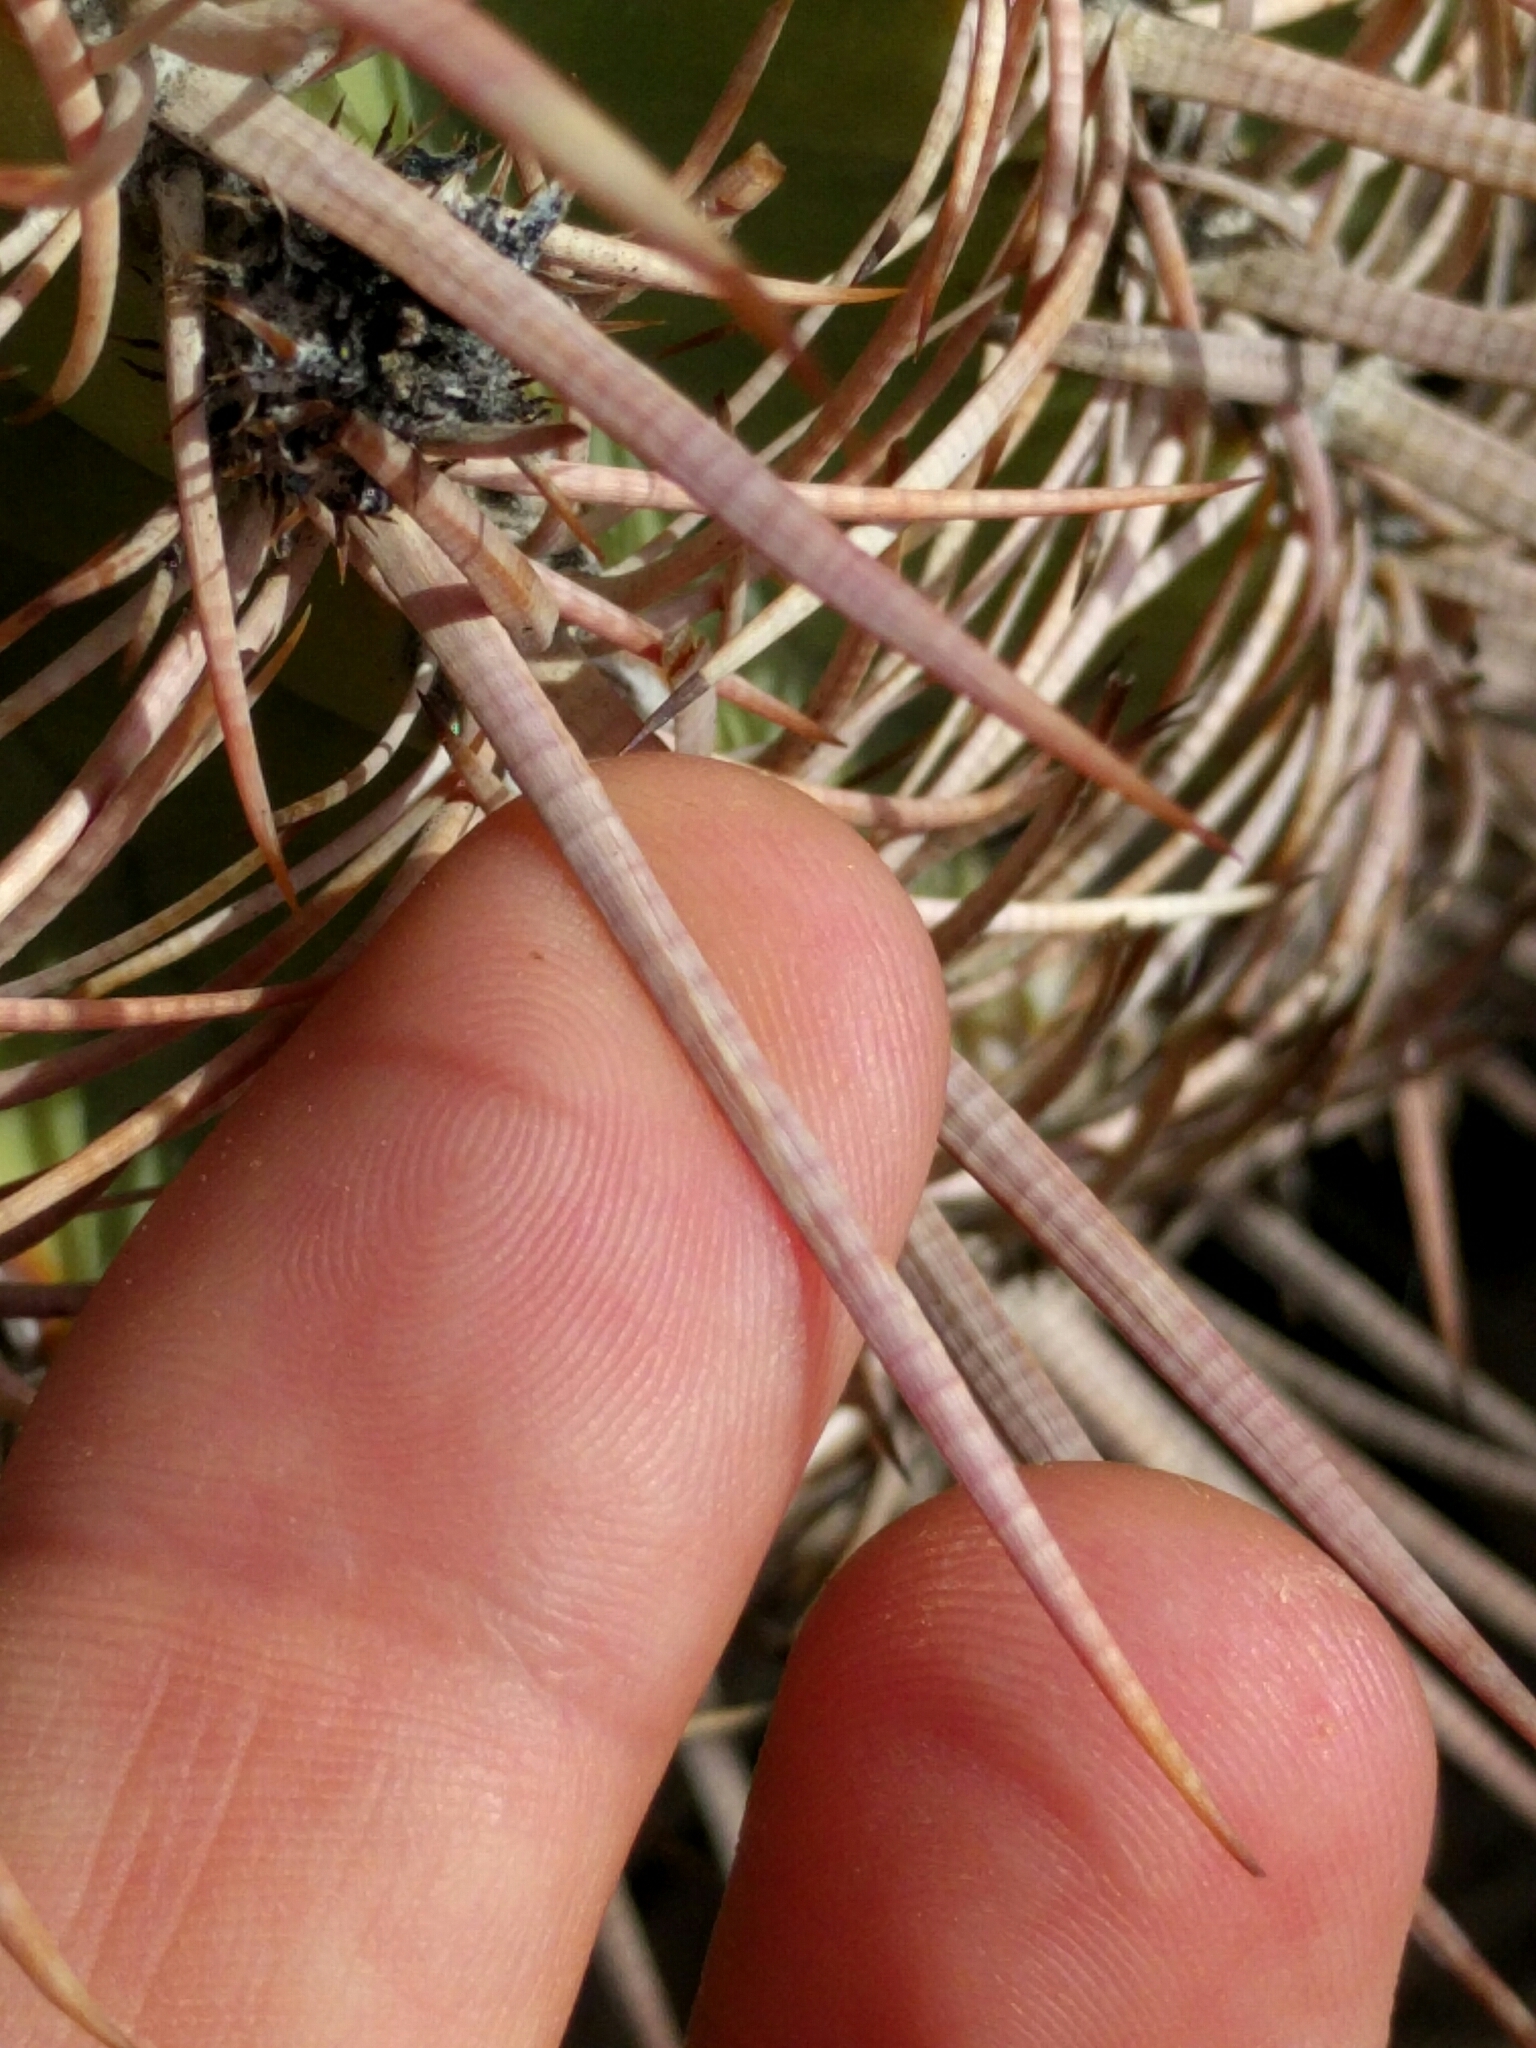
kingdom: Plantae
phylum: Tracheophyta
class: Magnoliopsida
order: Caryophyllales
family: Cactaceae
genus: Echinocactus
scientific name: Echinocactus polycephalus
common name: Cottontop cactus
